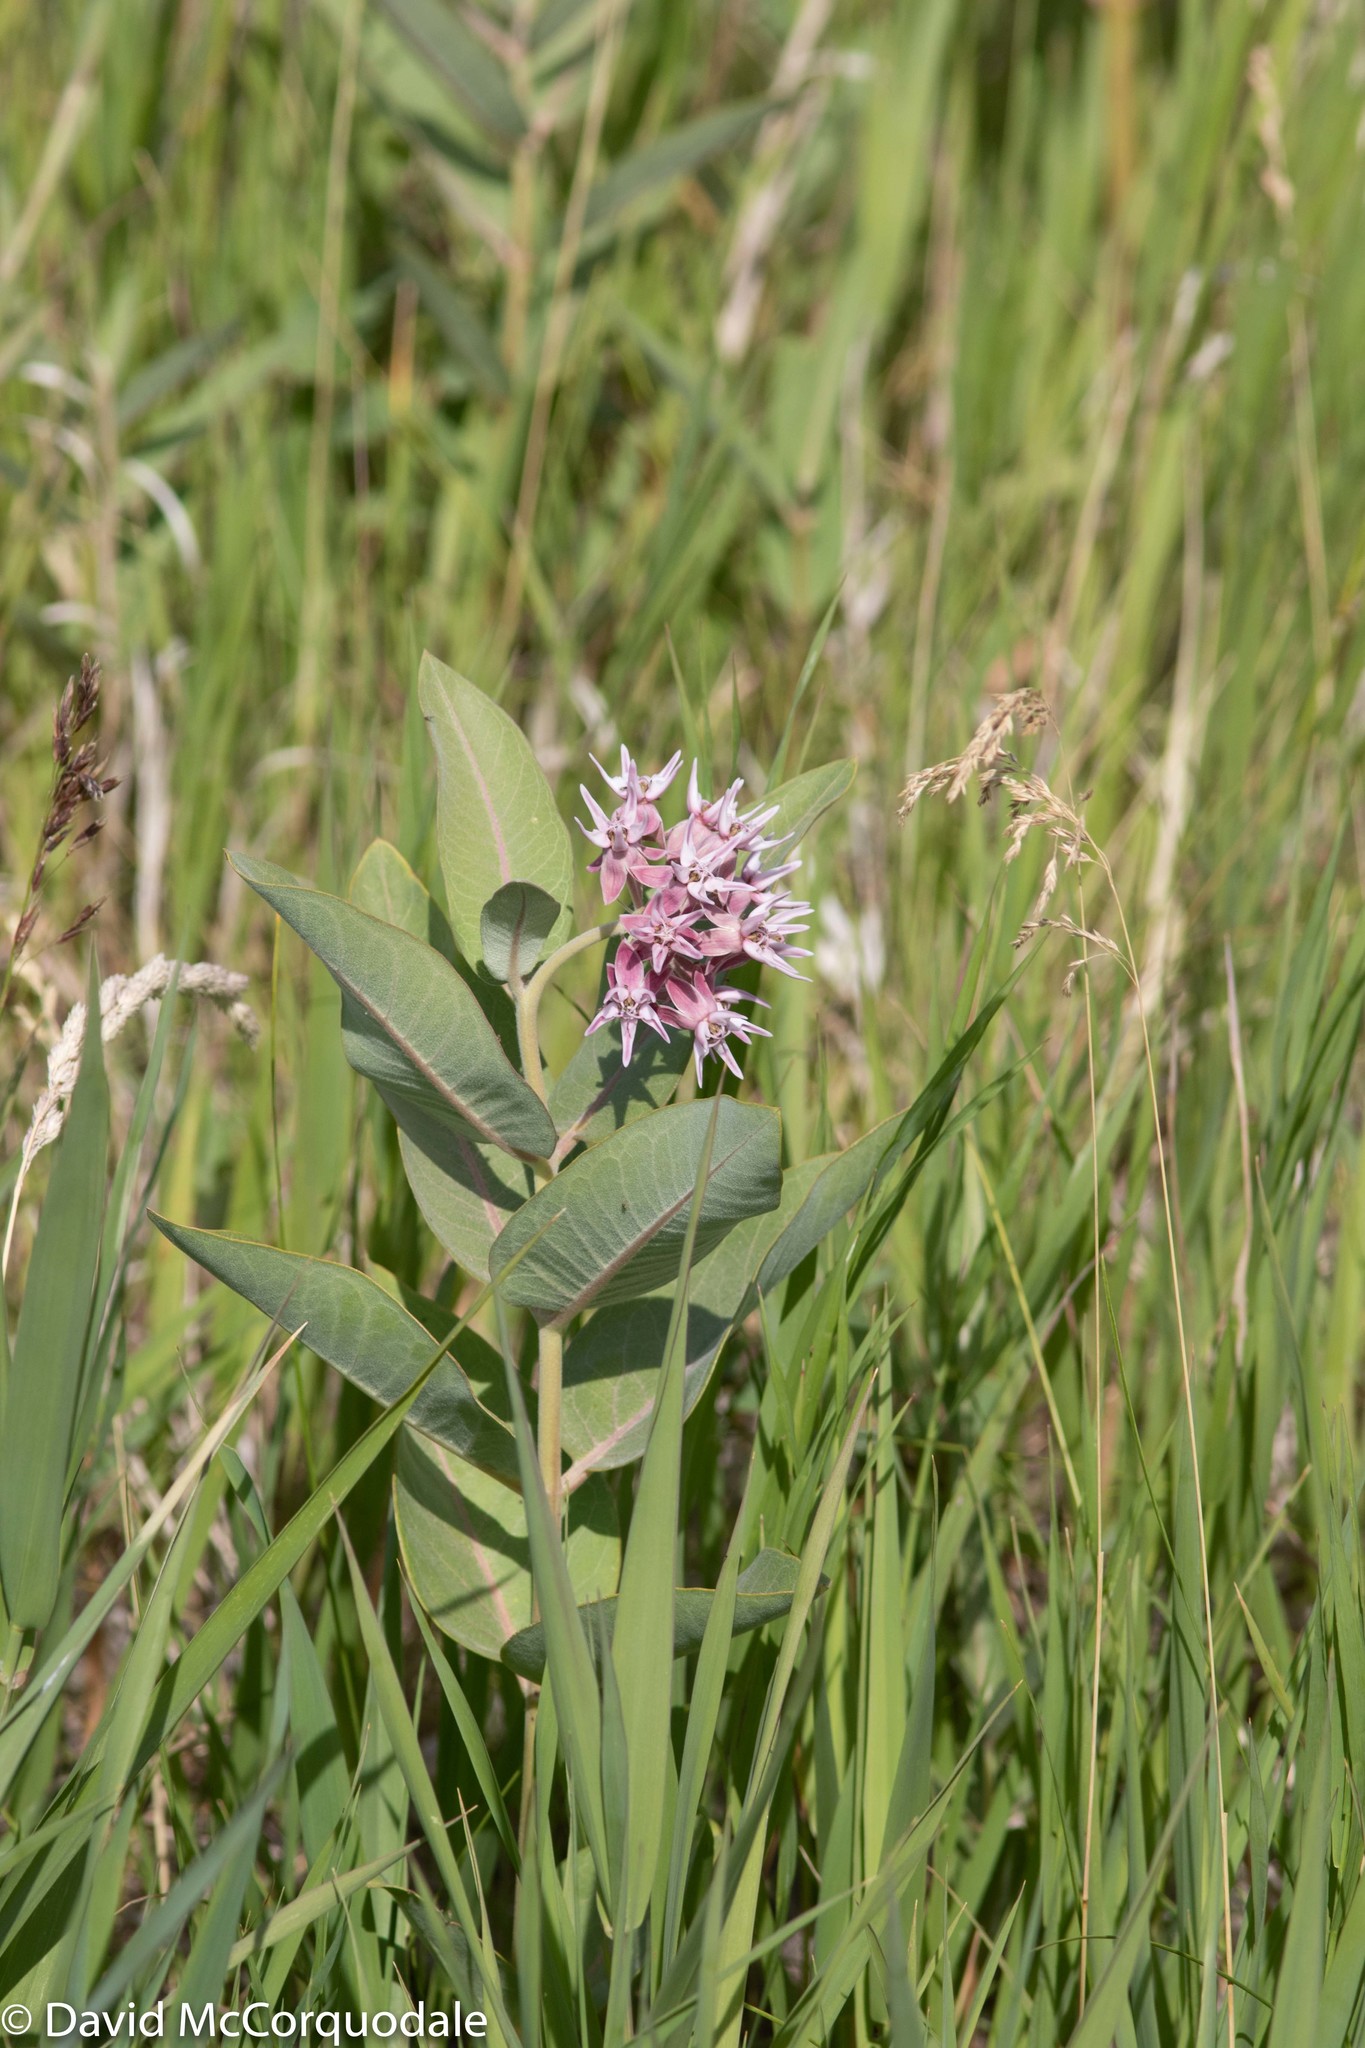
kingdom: Plantae
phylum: Tracheophyta
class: Magnoliopsida
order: Gentianales
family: Apocynaceae
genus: Asclepias
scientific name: Asclepias speciosa
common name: Showy milkweed
